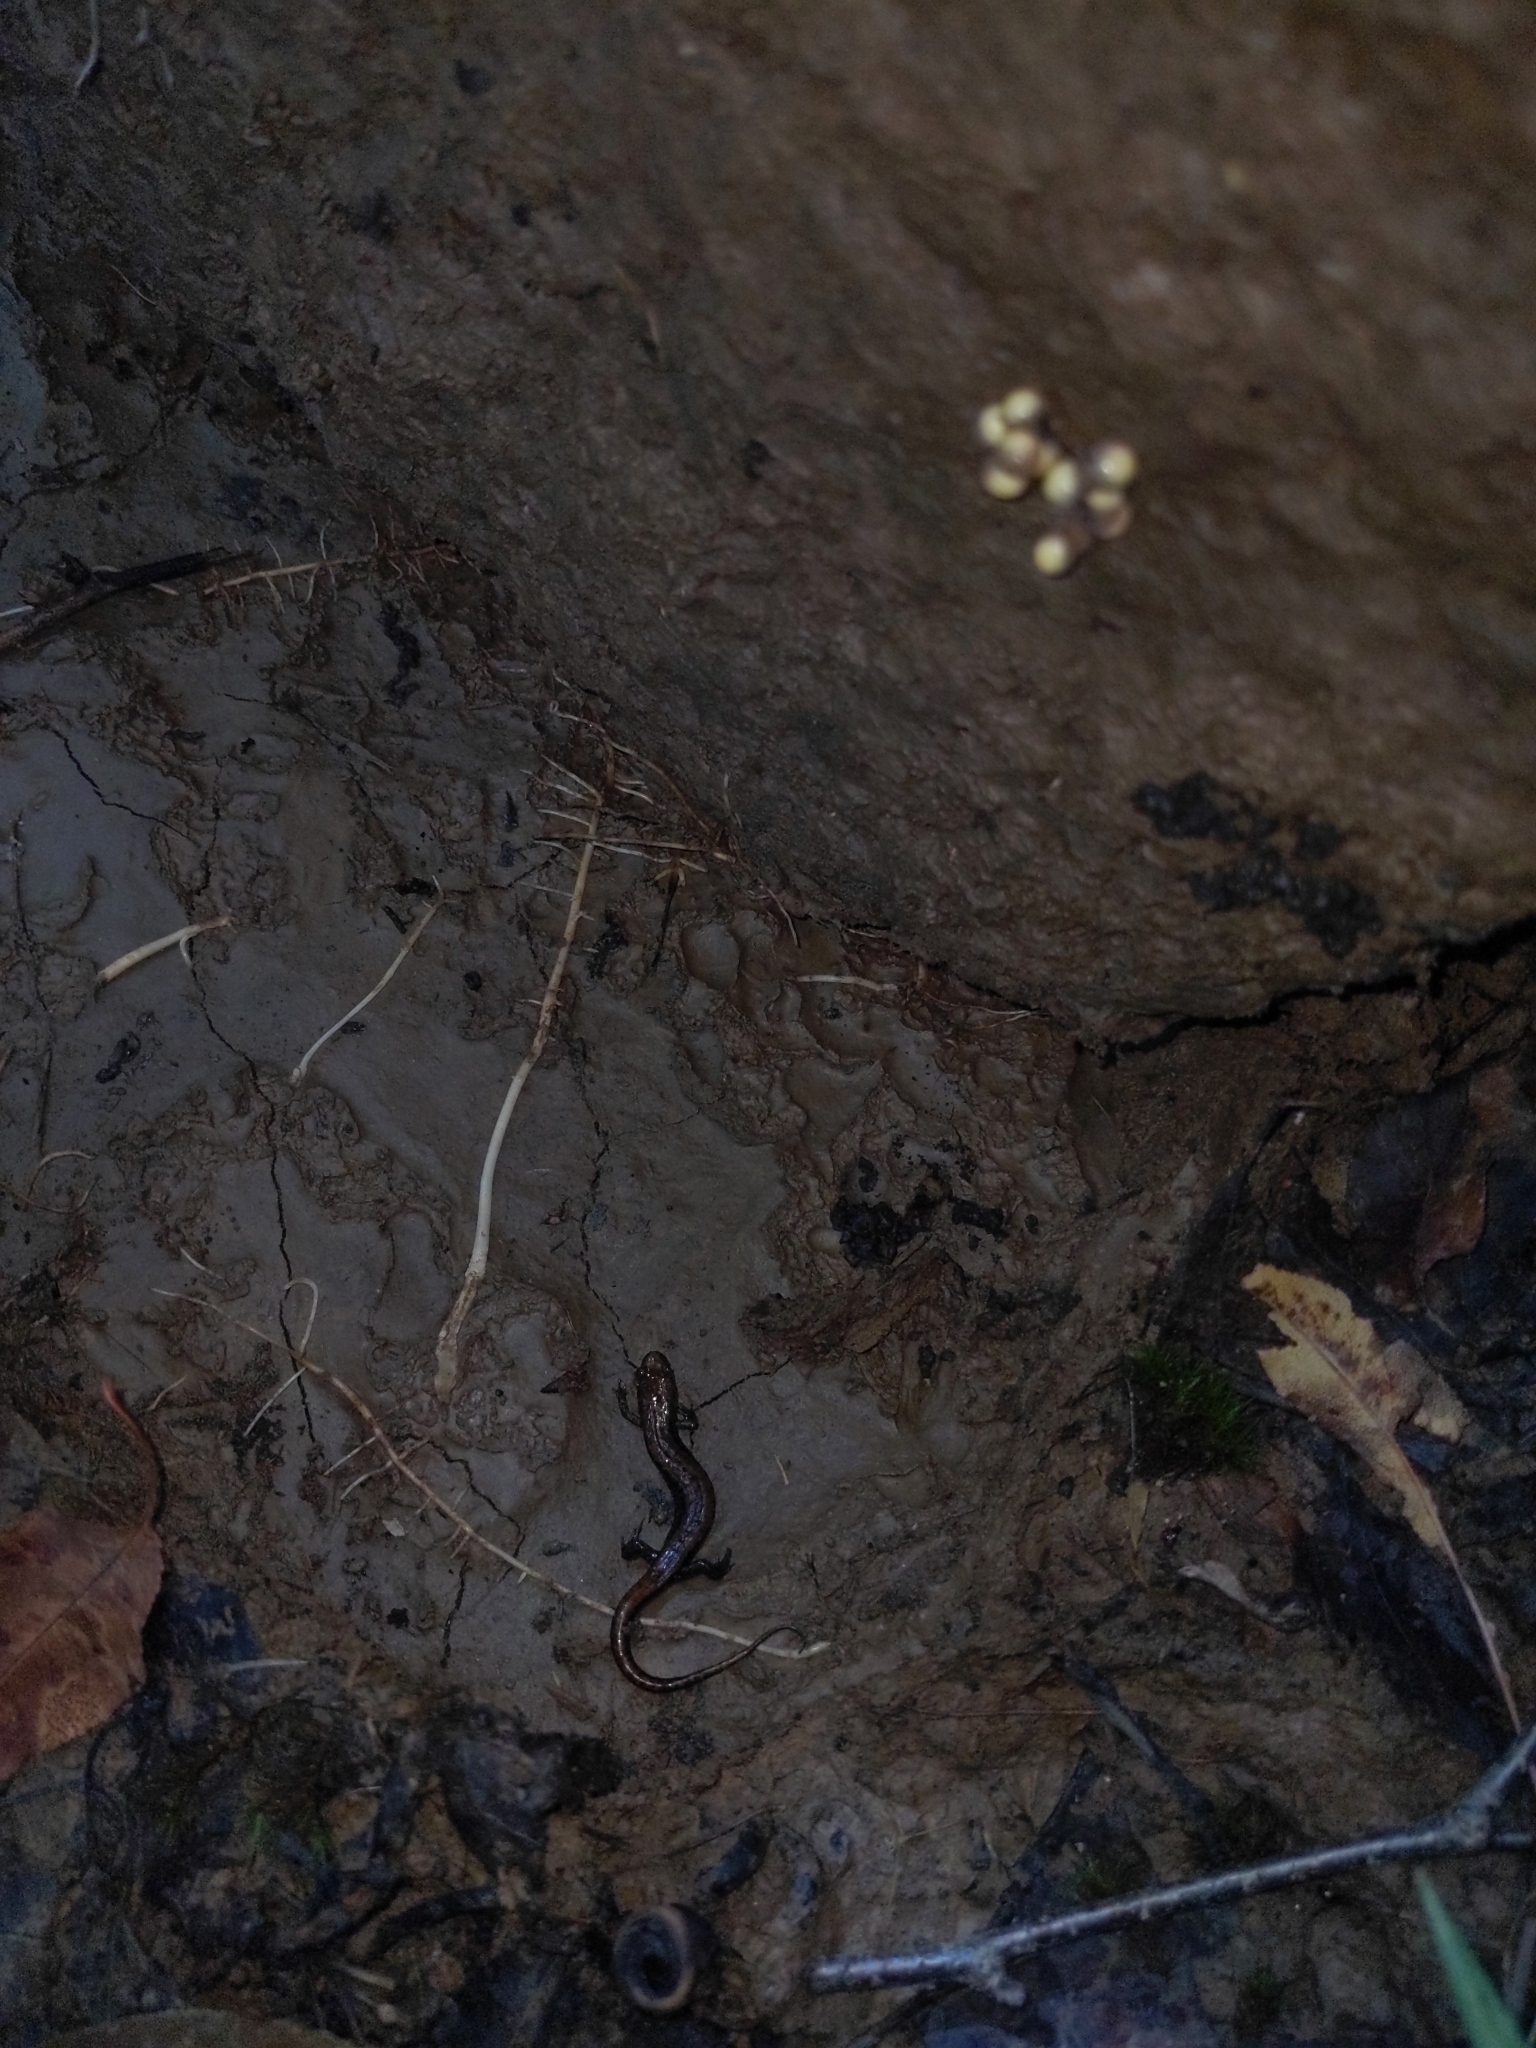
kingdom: Animalia
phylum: Chordata
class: Amphibia
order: Caudata
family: Plethodontidae
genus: Desmognathus
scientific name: Desmognathus ochrophaeus
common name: Allegheny mountain dusky salamander
